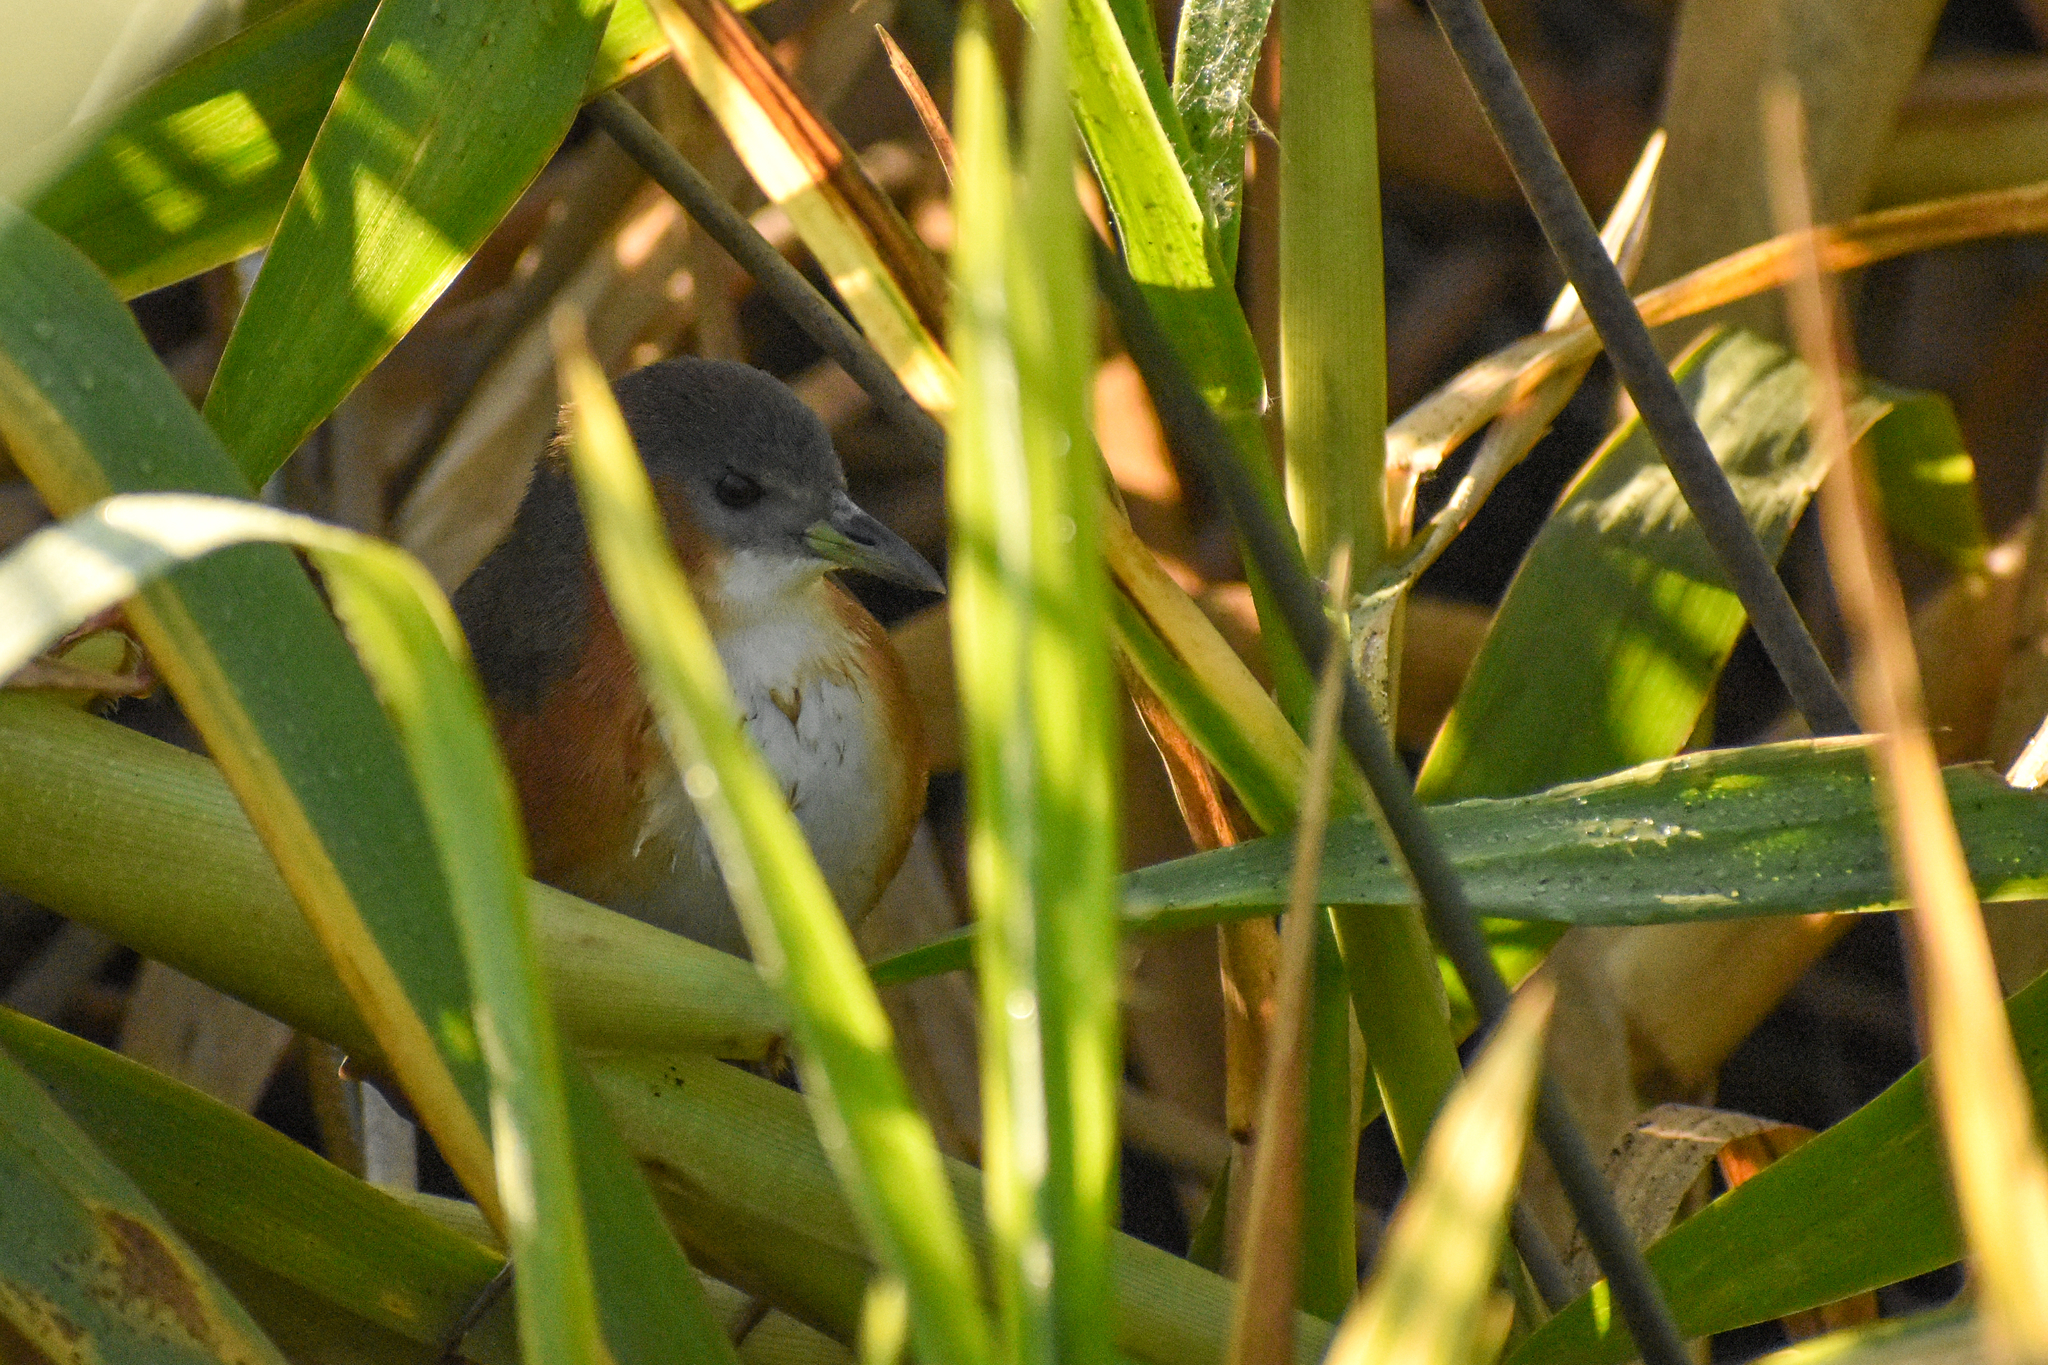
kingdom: Animalia
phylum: Chordata
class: Aves
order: Gruiformes
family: Rallidae
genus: Laterallus
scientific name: Laterallus melanophaius
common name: Rufous-sided crake
